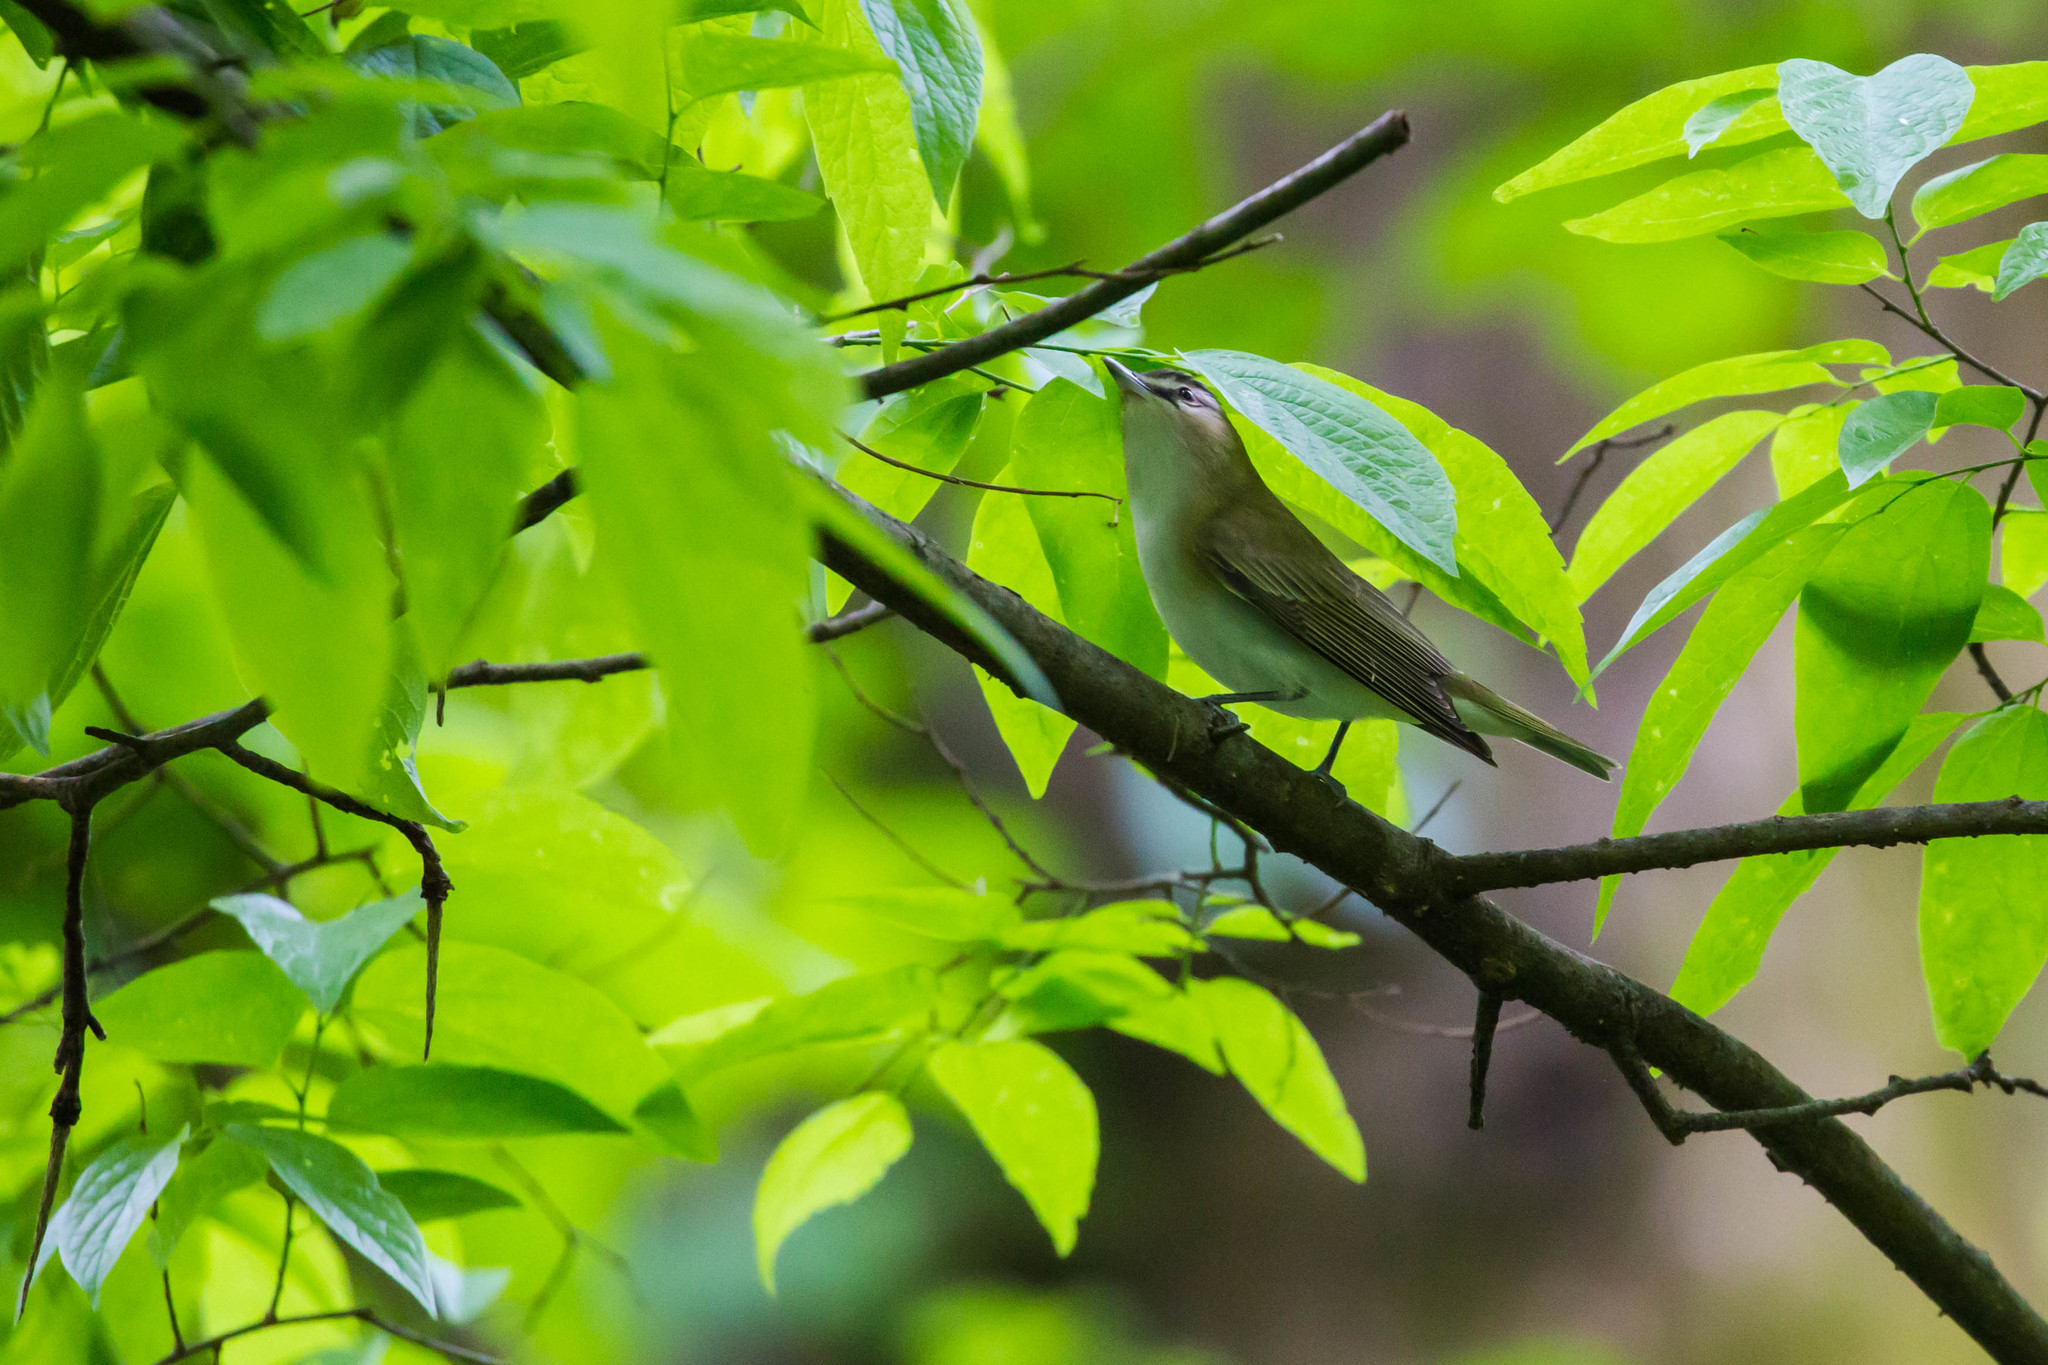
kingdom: Animalia
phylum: Chordata
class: Aves
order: Passeriformes
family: Vireonidae
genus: Vireo
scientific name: Vireo olivaceus
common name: Red-eyed vireo
